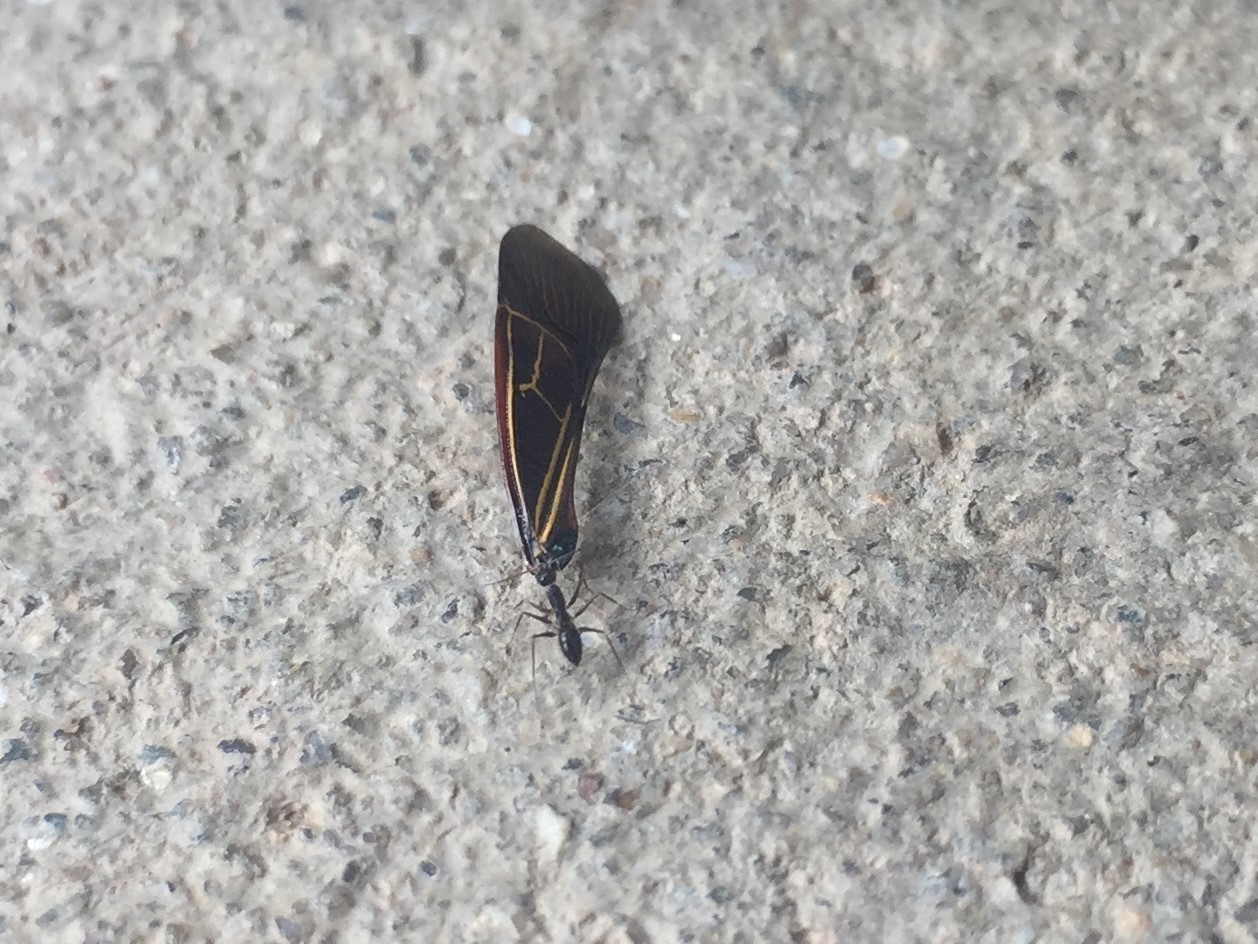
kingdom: Animalia
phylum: Arthropoda
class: Insecta
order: Hymenoptera
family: Formicidae
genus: Paratrechina
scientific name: Paratrechina longicornis
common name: Longhorned crazy ant
